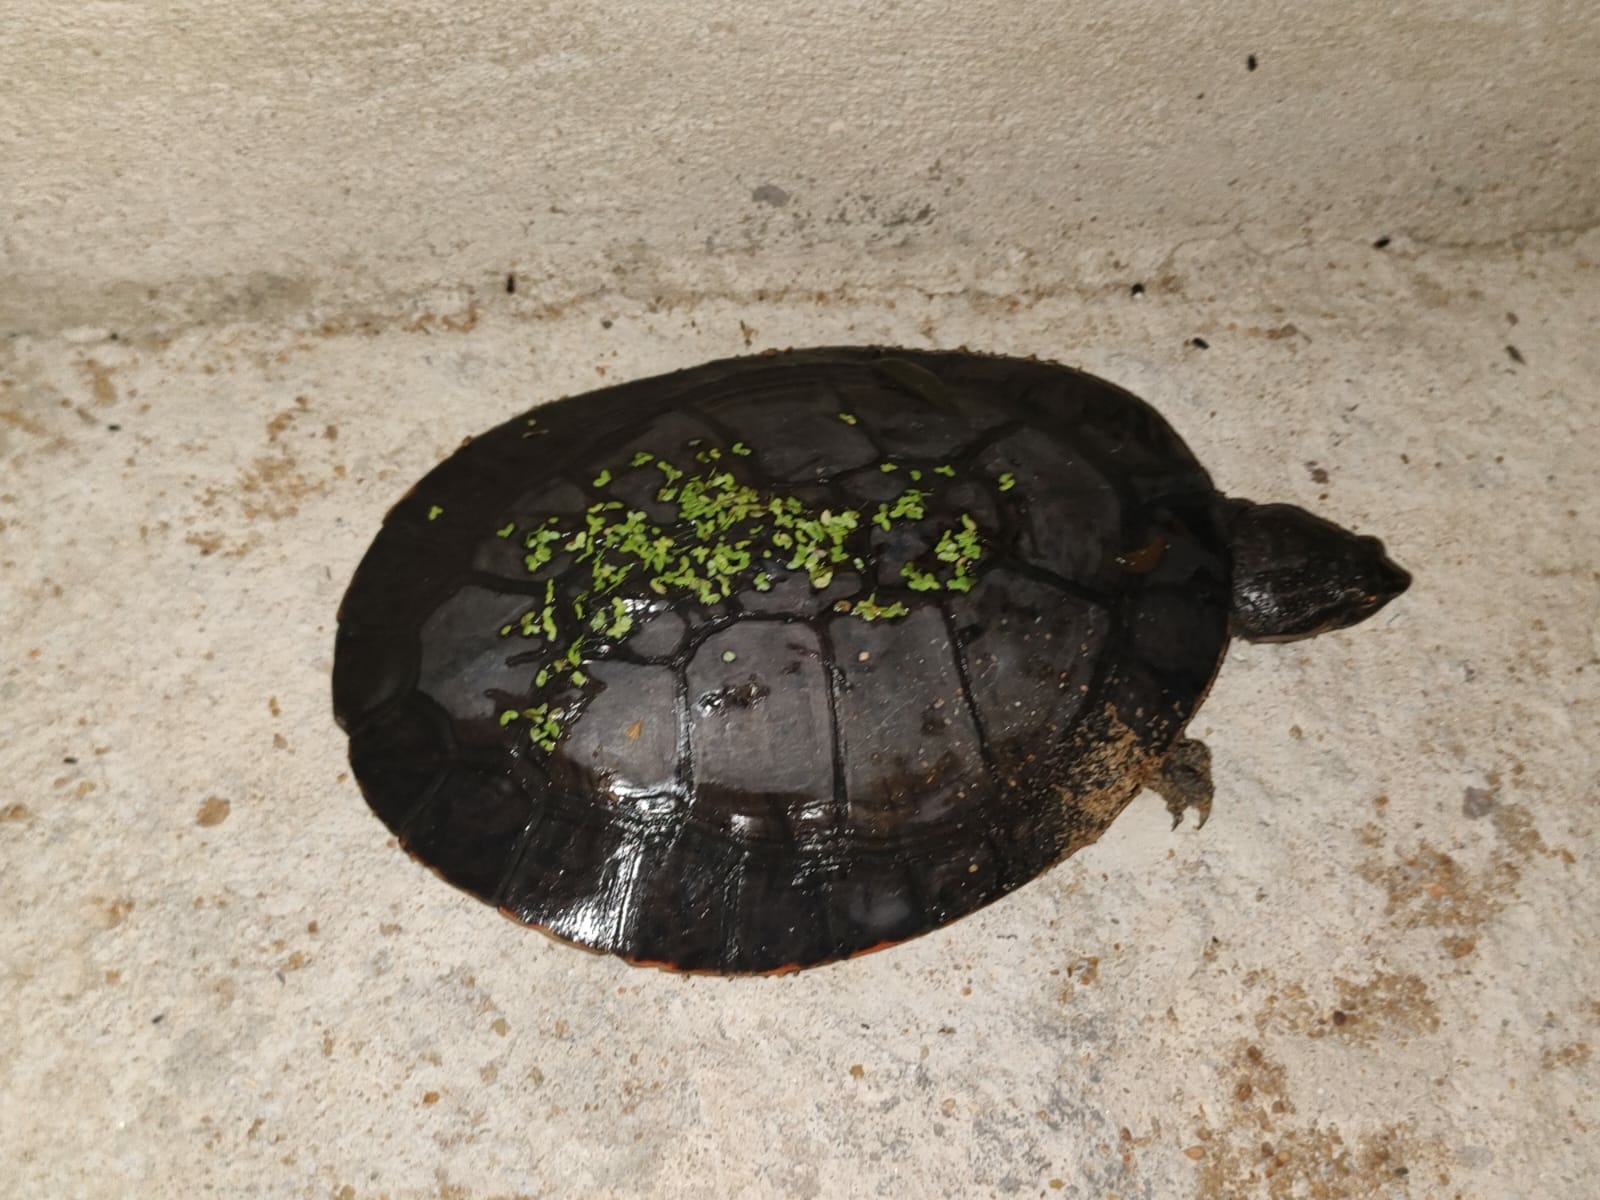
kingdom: Animalia
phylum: Chordata
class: Testudines
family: Chelidae
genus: Phrynops
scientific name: Phrynops geoffroanus
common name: Side-necked turtle of geoffroy
